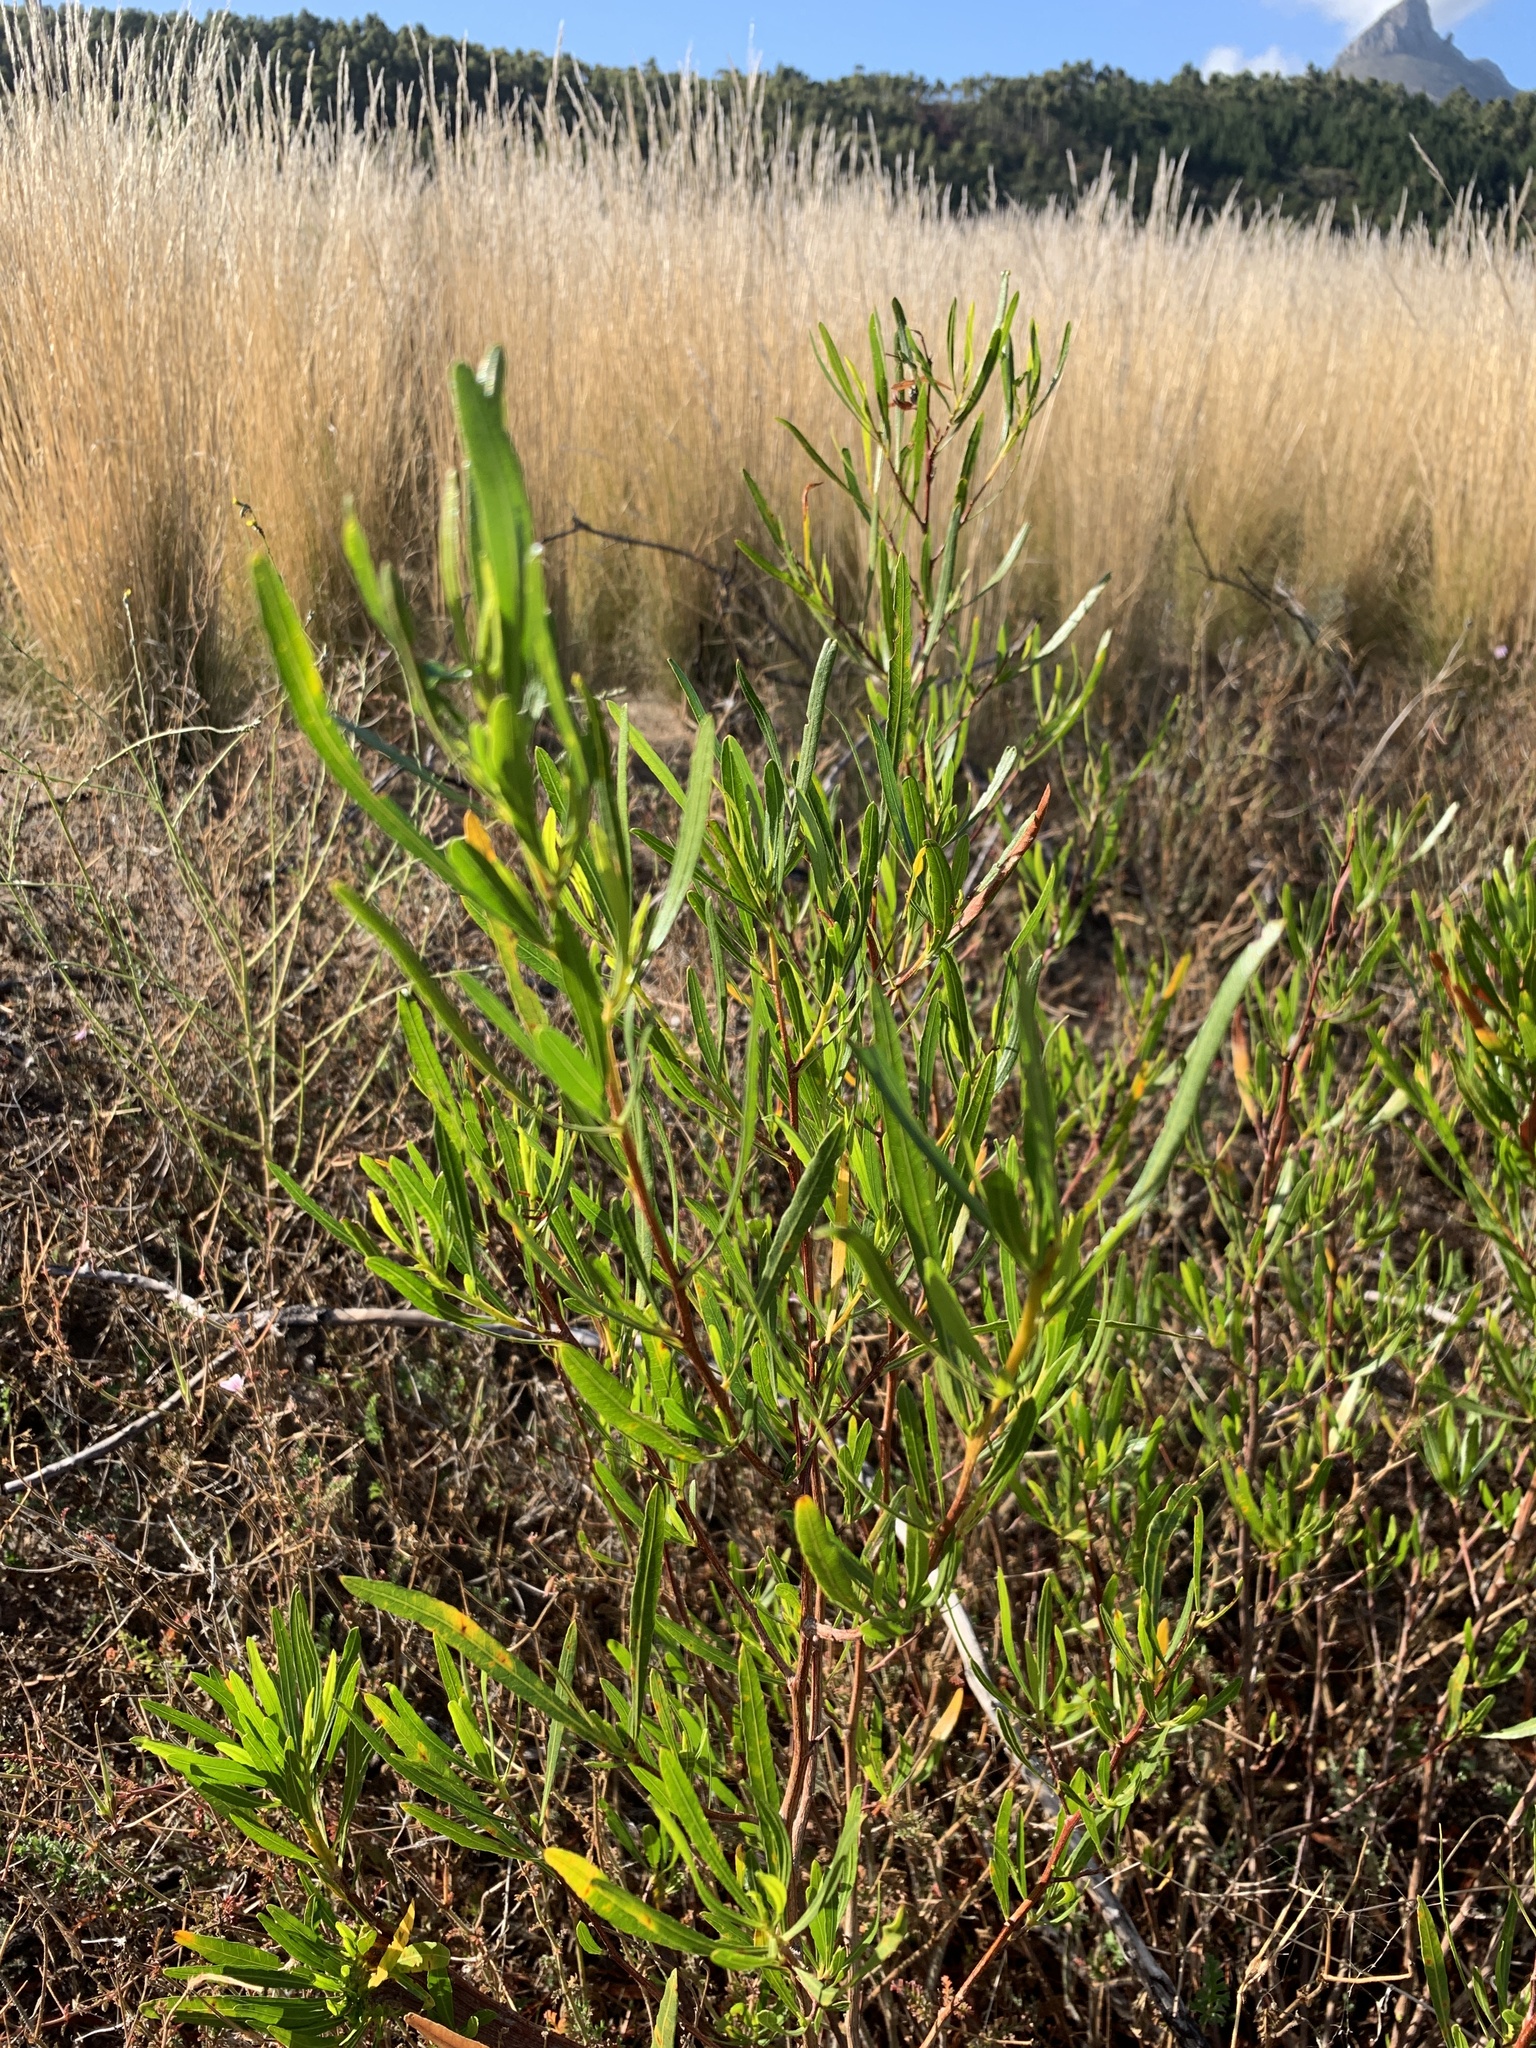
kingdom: Plantae
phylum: Tracheophyta
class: Magnoliopsida
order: Sapindales
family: Sapindaceae
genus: Dodonaea
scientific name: Dodonaea viscosa
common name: Hopbush
